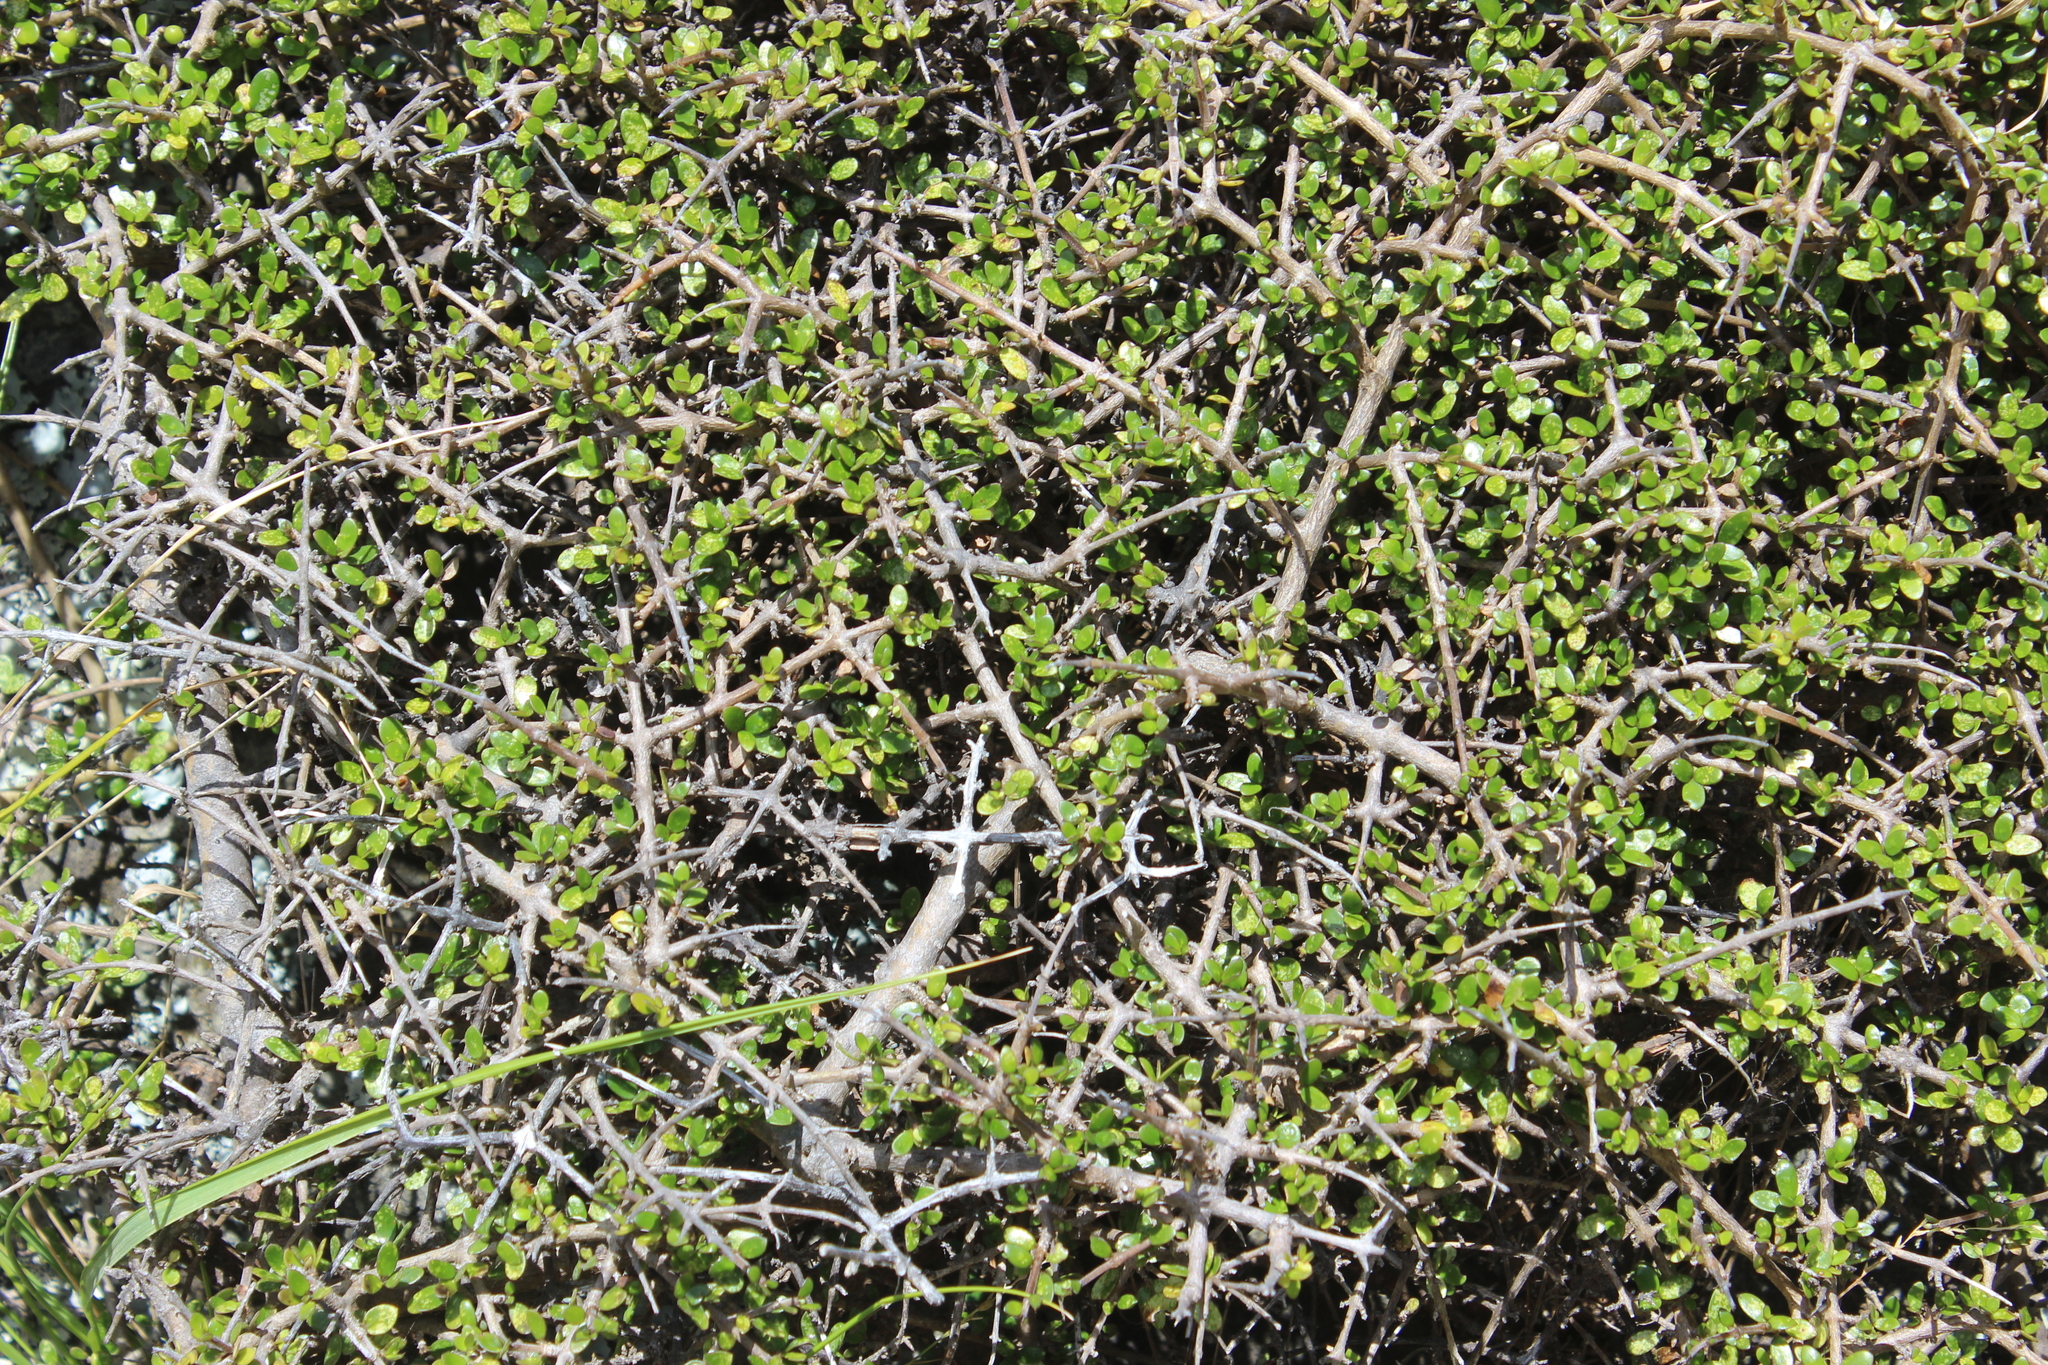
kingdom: Plantae
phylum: Tracheophyta
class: Magnoliopsida
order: Gentianales
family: Rubiaceae
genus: Coprosma
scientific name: Coprosma propinqua
